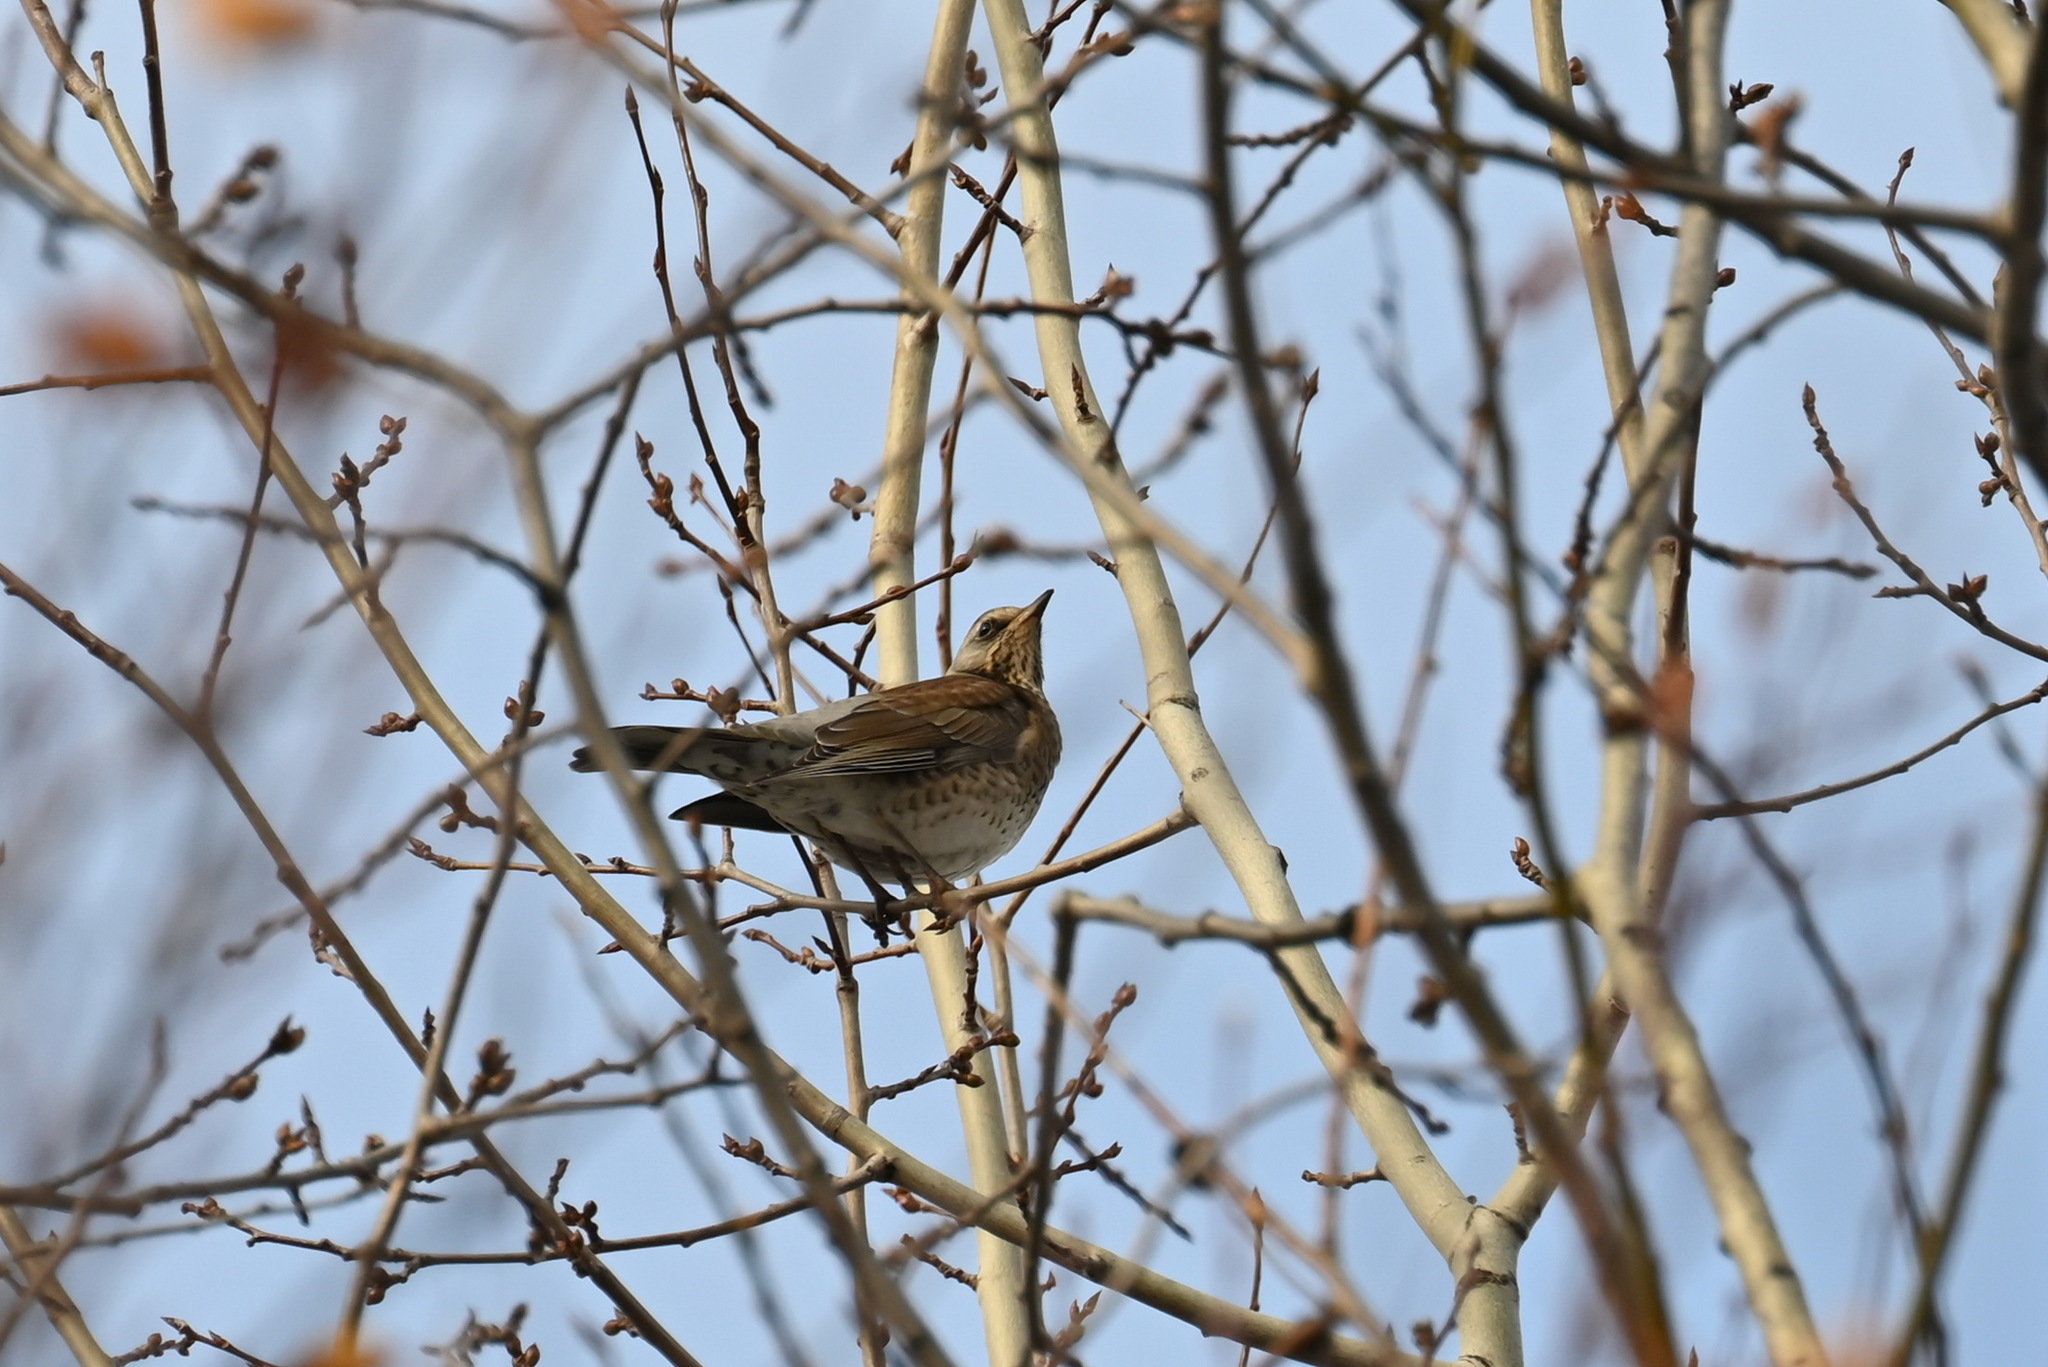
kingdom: Animalia
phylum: Chordata
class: Aves
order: Passeriformes
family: Turdidae
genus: Turdus
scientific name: Turdus pilaris
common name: Fieldfare
